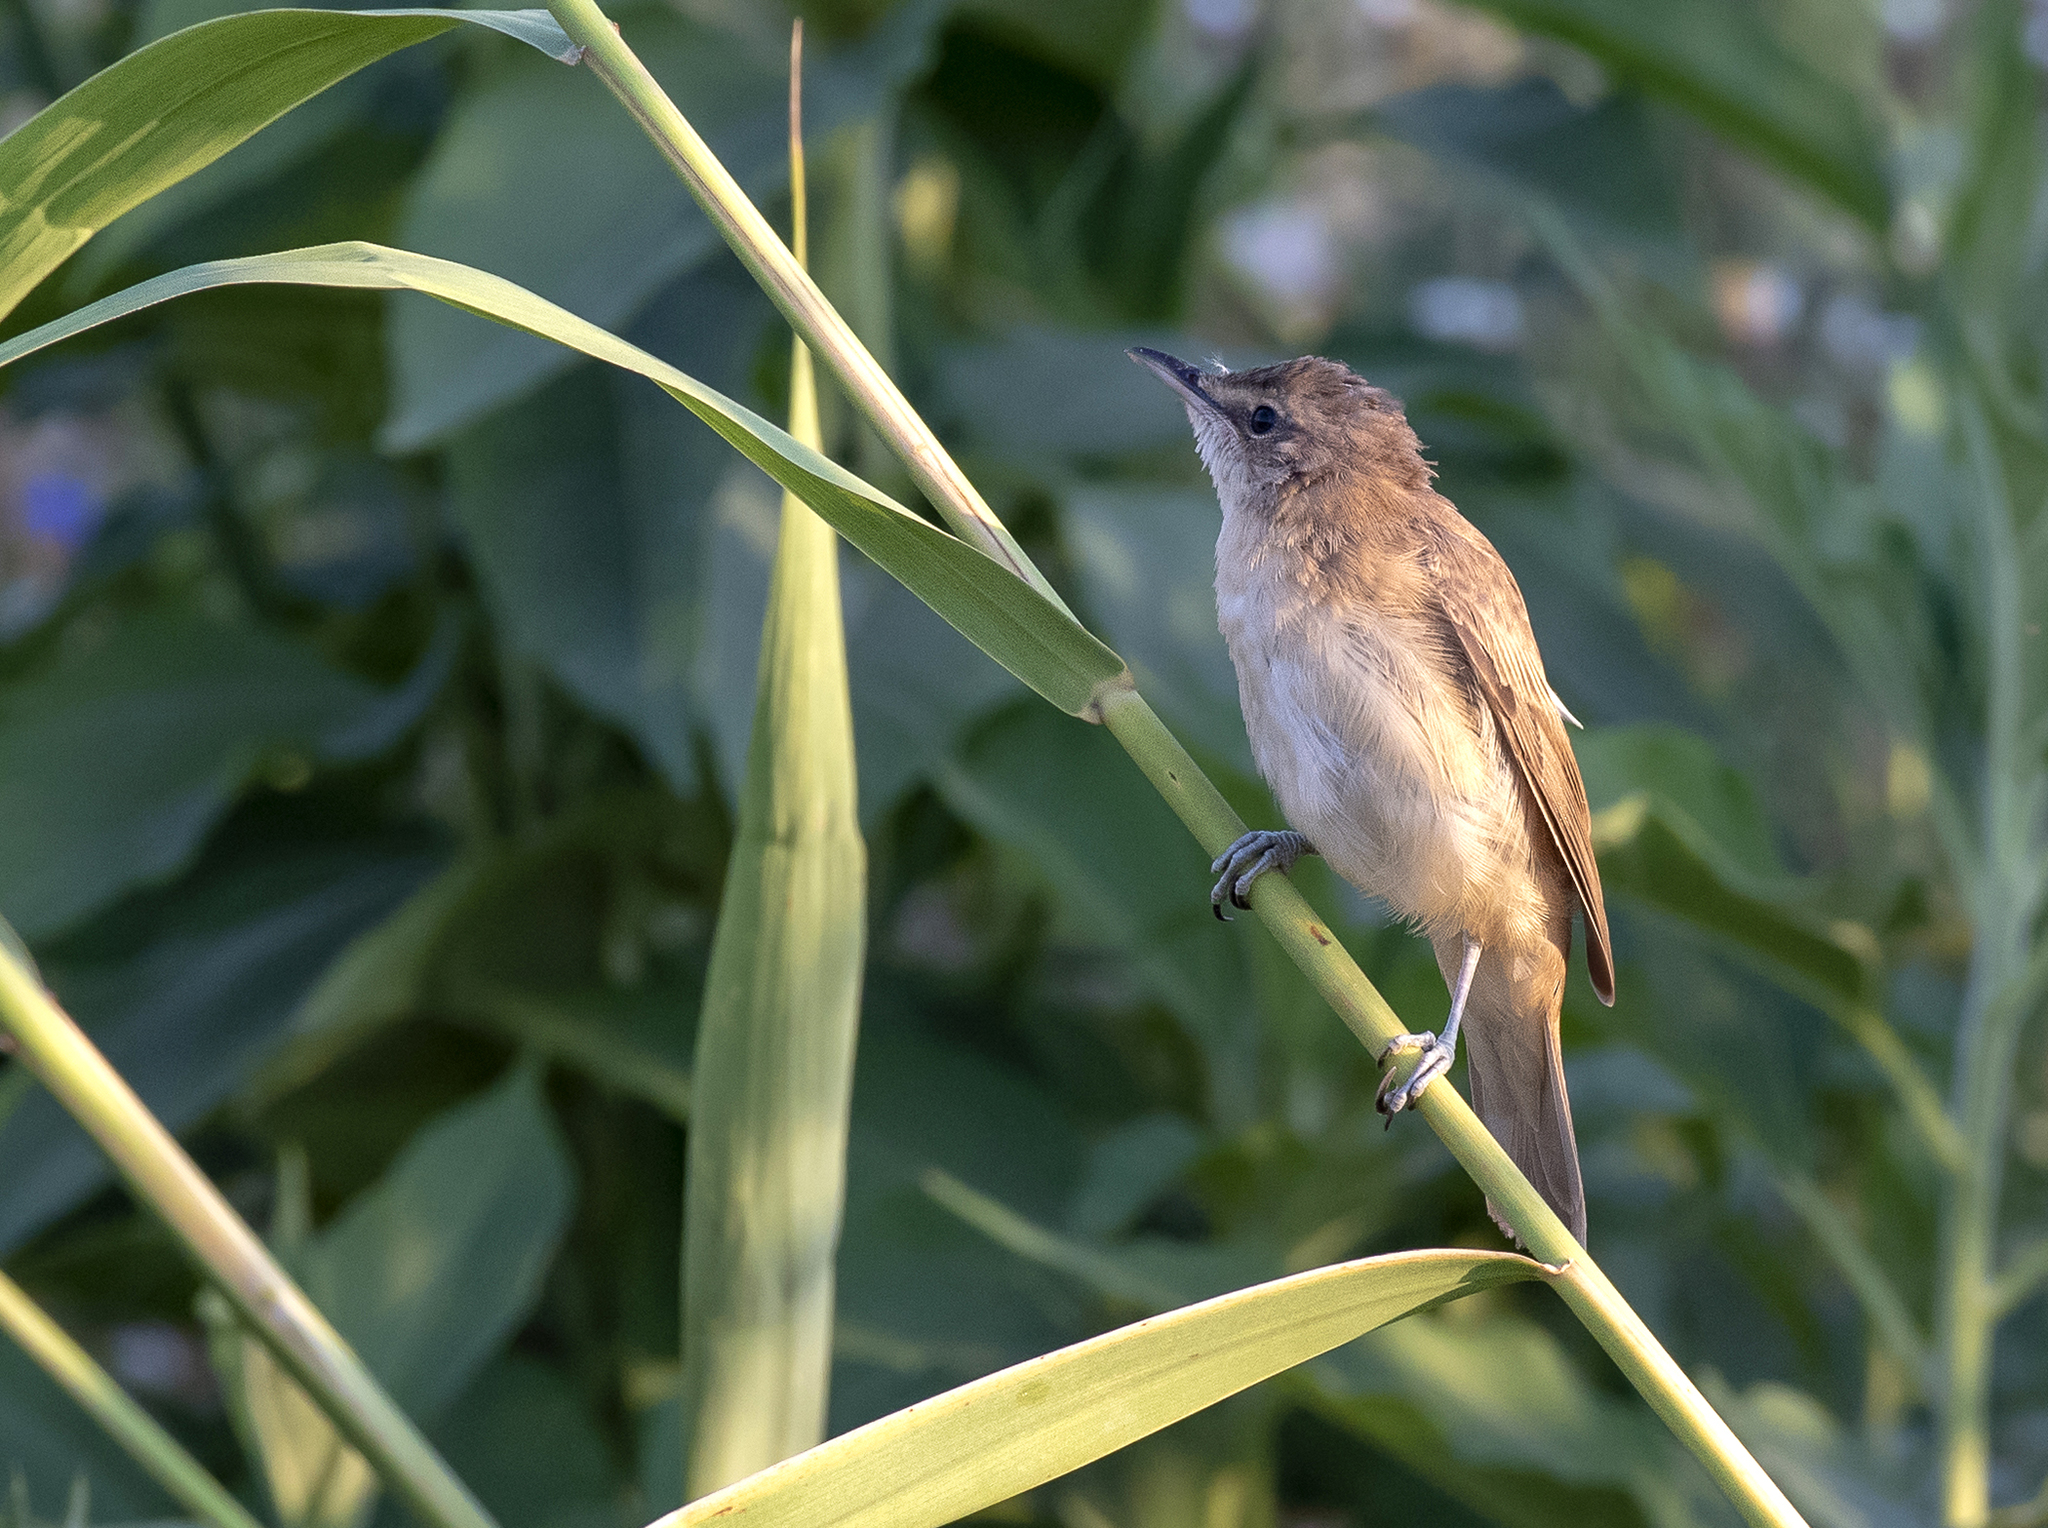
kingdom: Animalia
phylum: Chordata
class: Aves
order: Passeriformes
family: Acrocephalidae
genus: Acrocephalus
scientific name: Acrocephalus arundinaceus
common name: Great reed warbler
